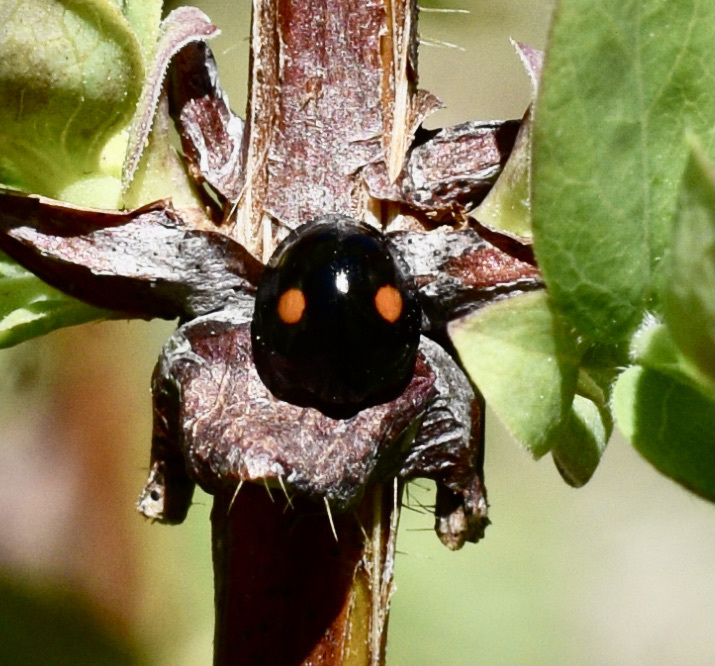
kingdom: Animalia
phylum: Arthropoda
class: Insecta
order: Coleoptera
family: Coccinellidae
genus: Chilocorus
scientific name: Chilocorus stigma
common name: Twicestabbed lady beetle
